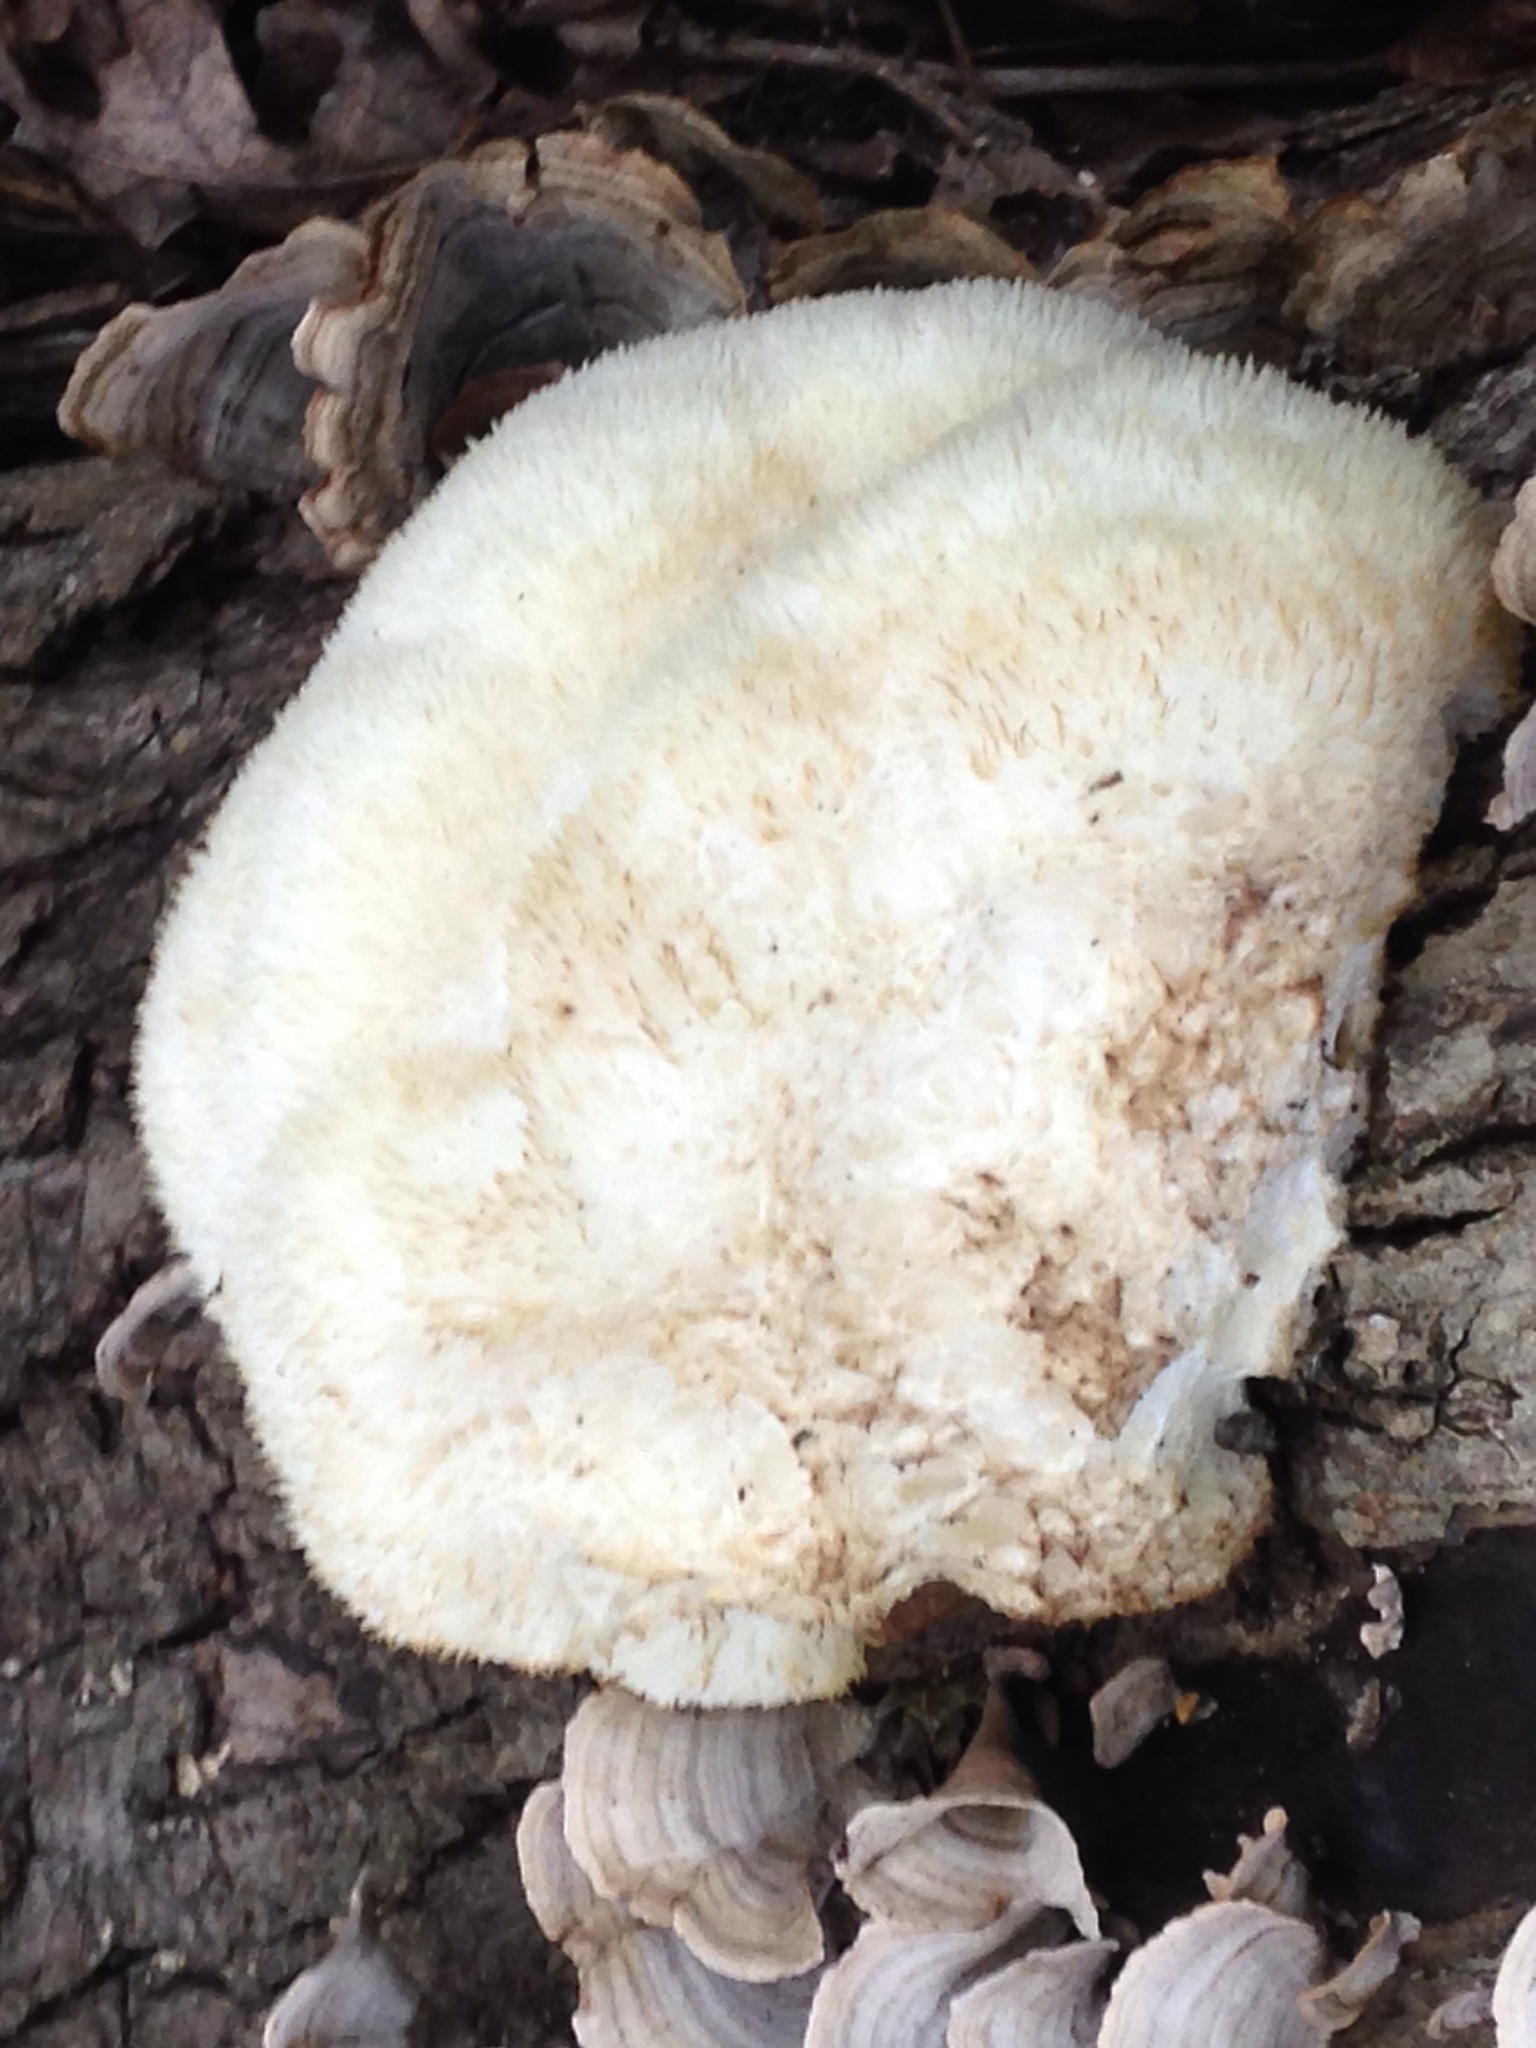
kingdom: Fungi
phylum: Basidiomycota
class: Agaricomycetes
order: Russulales
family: Hericiaceae
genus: Hericium
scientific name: Hericium erinaceus
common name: Bearded tooth
